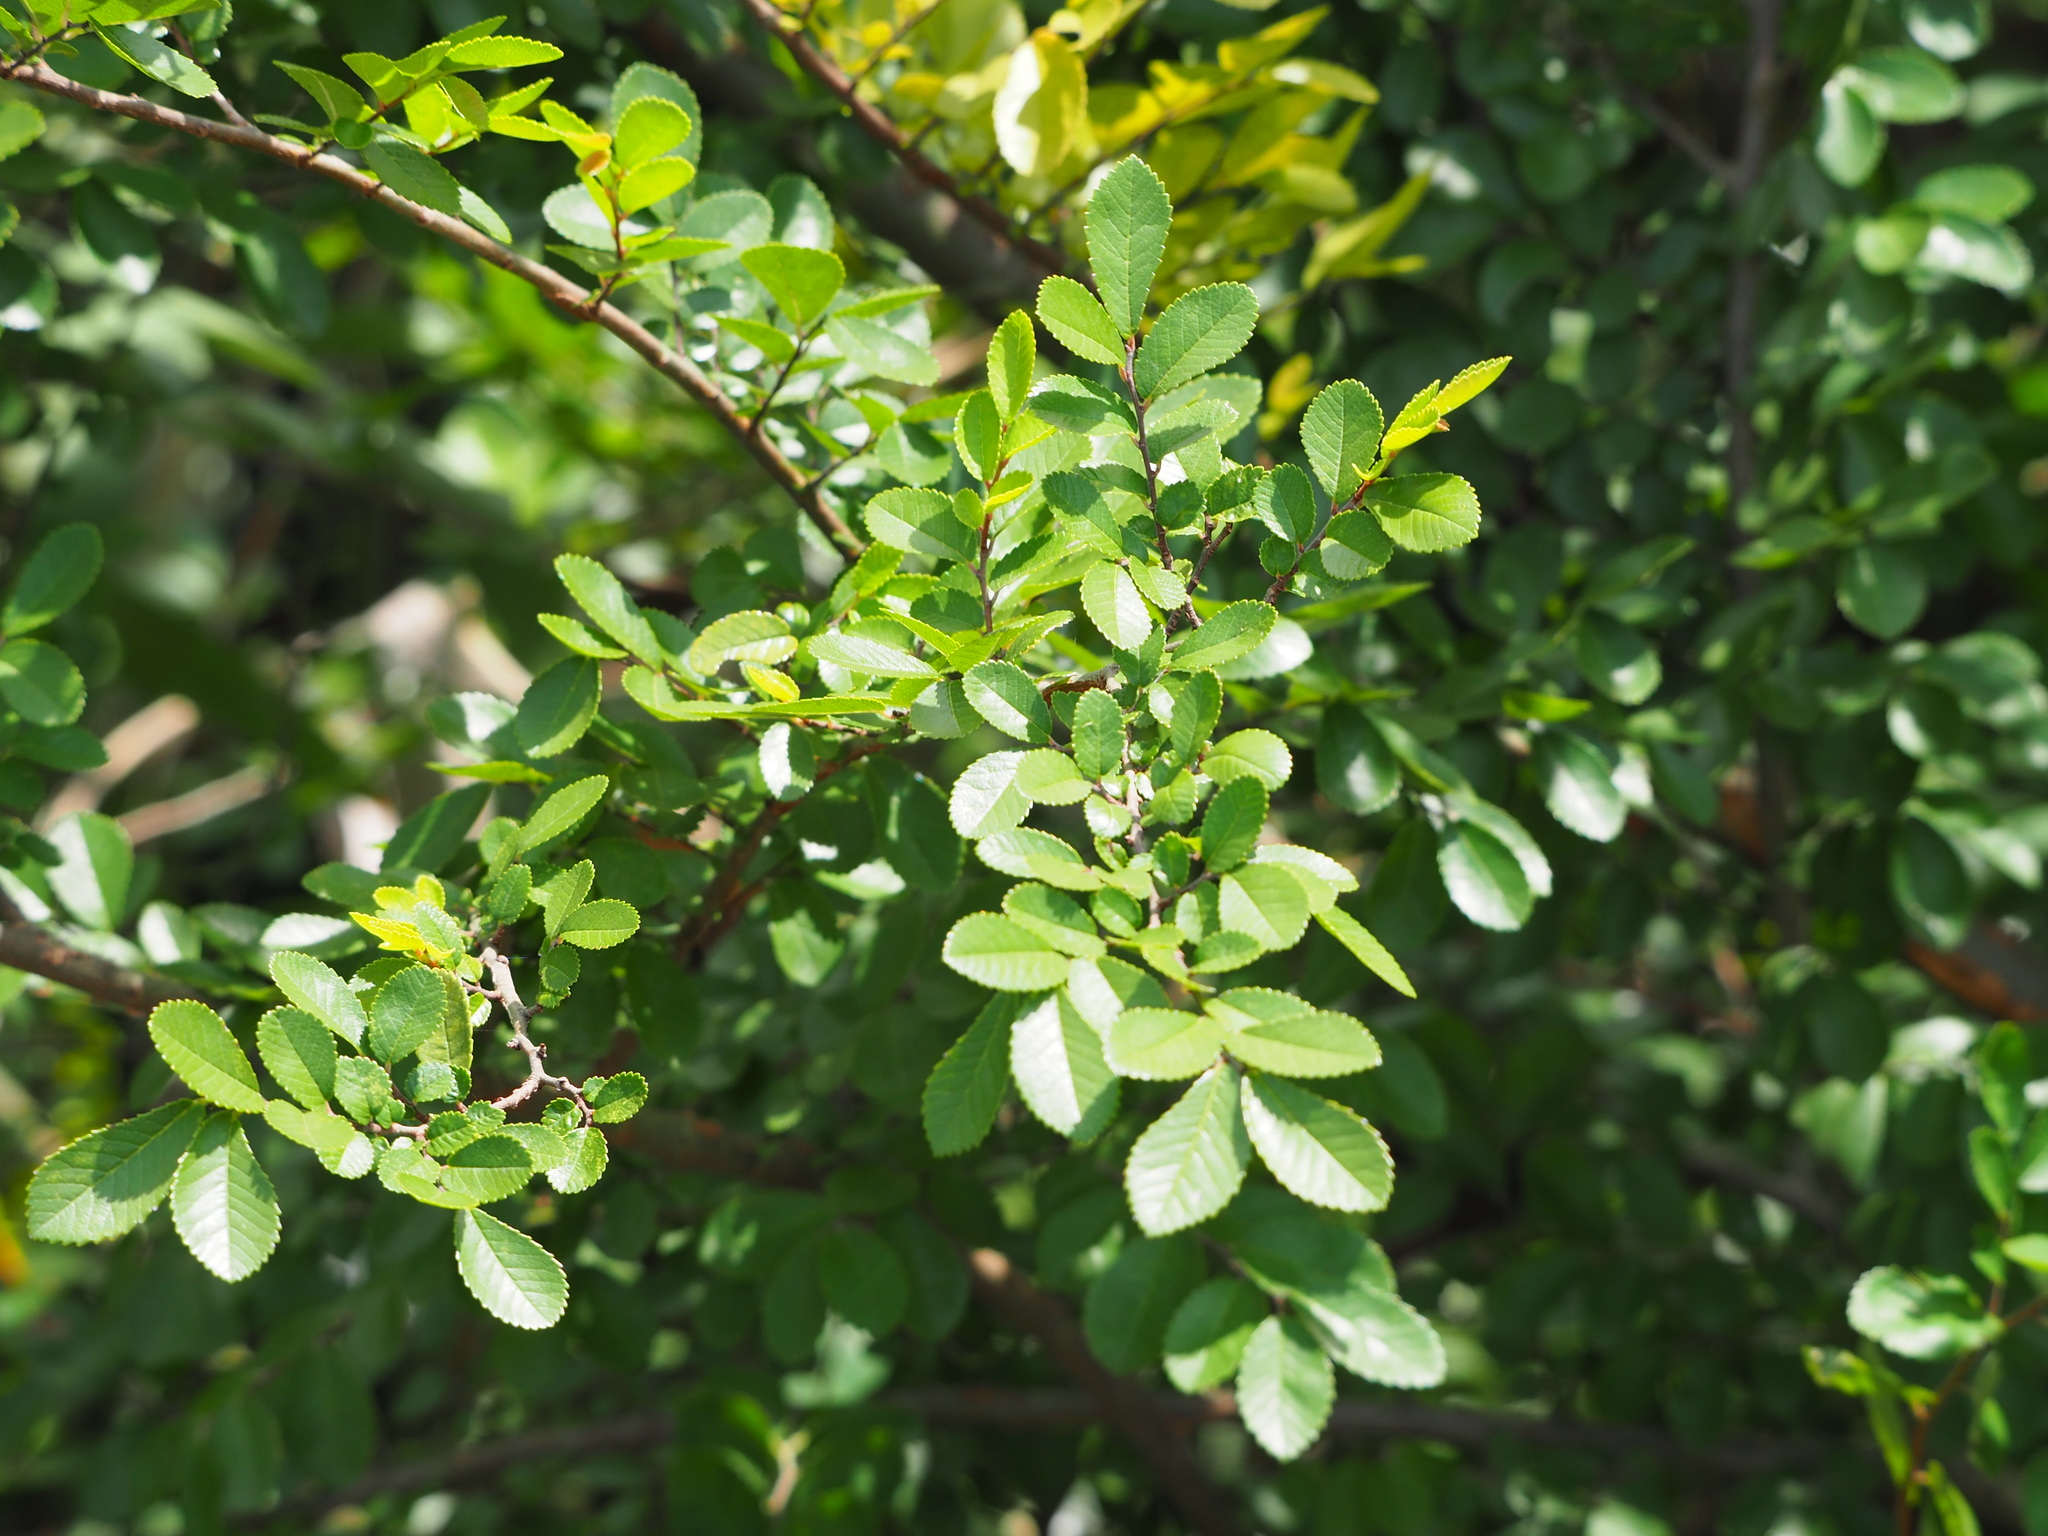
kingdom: Plantae
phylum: Tracheophyta
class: Magnoliopsida
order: Rosales
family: Ulmaceae
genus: Ulmus
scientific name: Ulmus parvifolia
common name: Chinese elm
